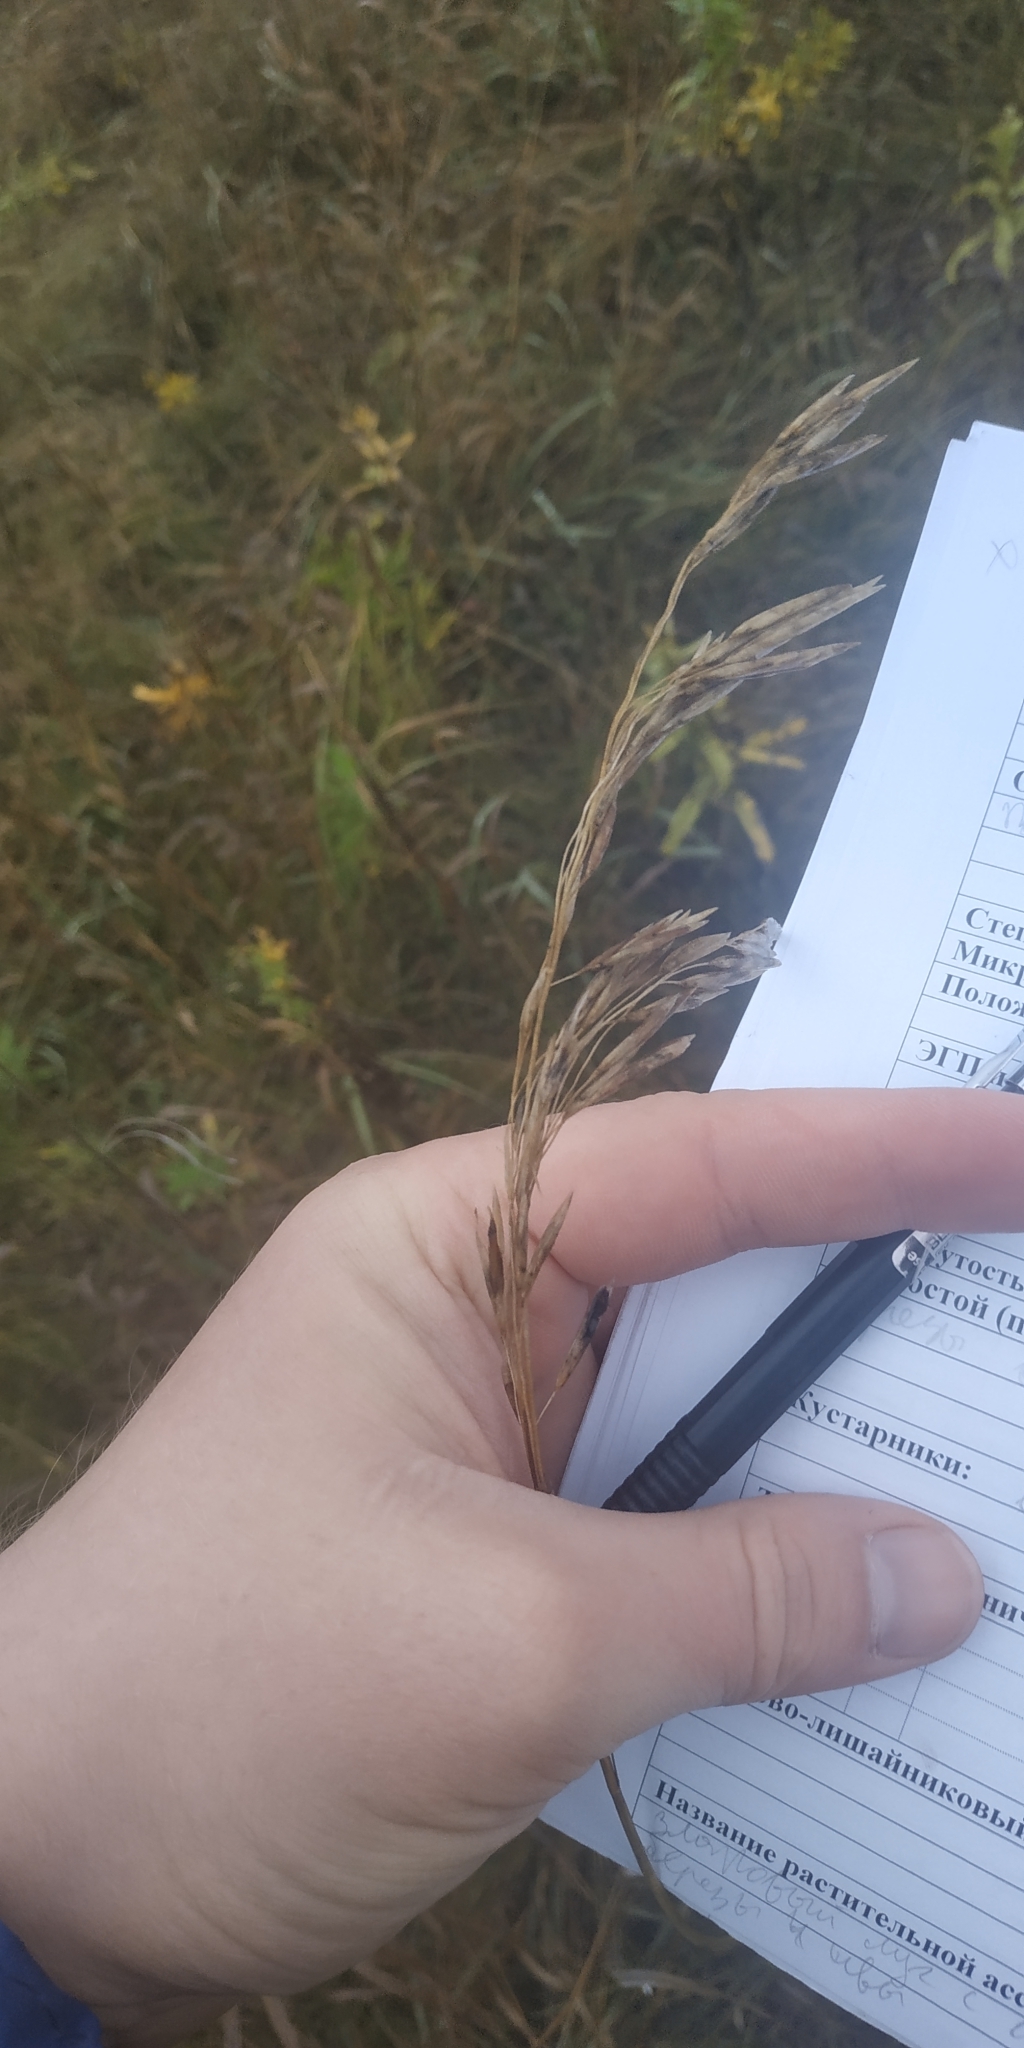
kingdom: Plantae
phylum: Tracheophyta
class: Liliopsida
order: Poales
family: Poaceae
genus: Bromus
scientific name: Bromus inermis
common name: Smooth brome
